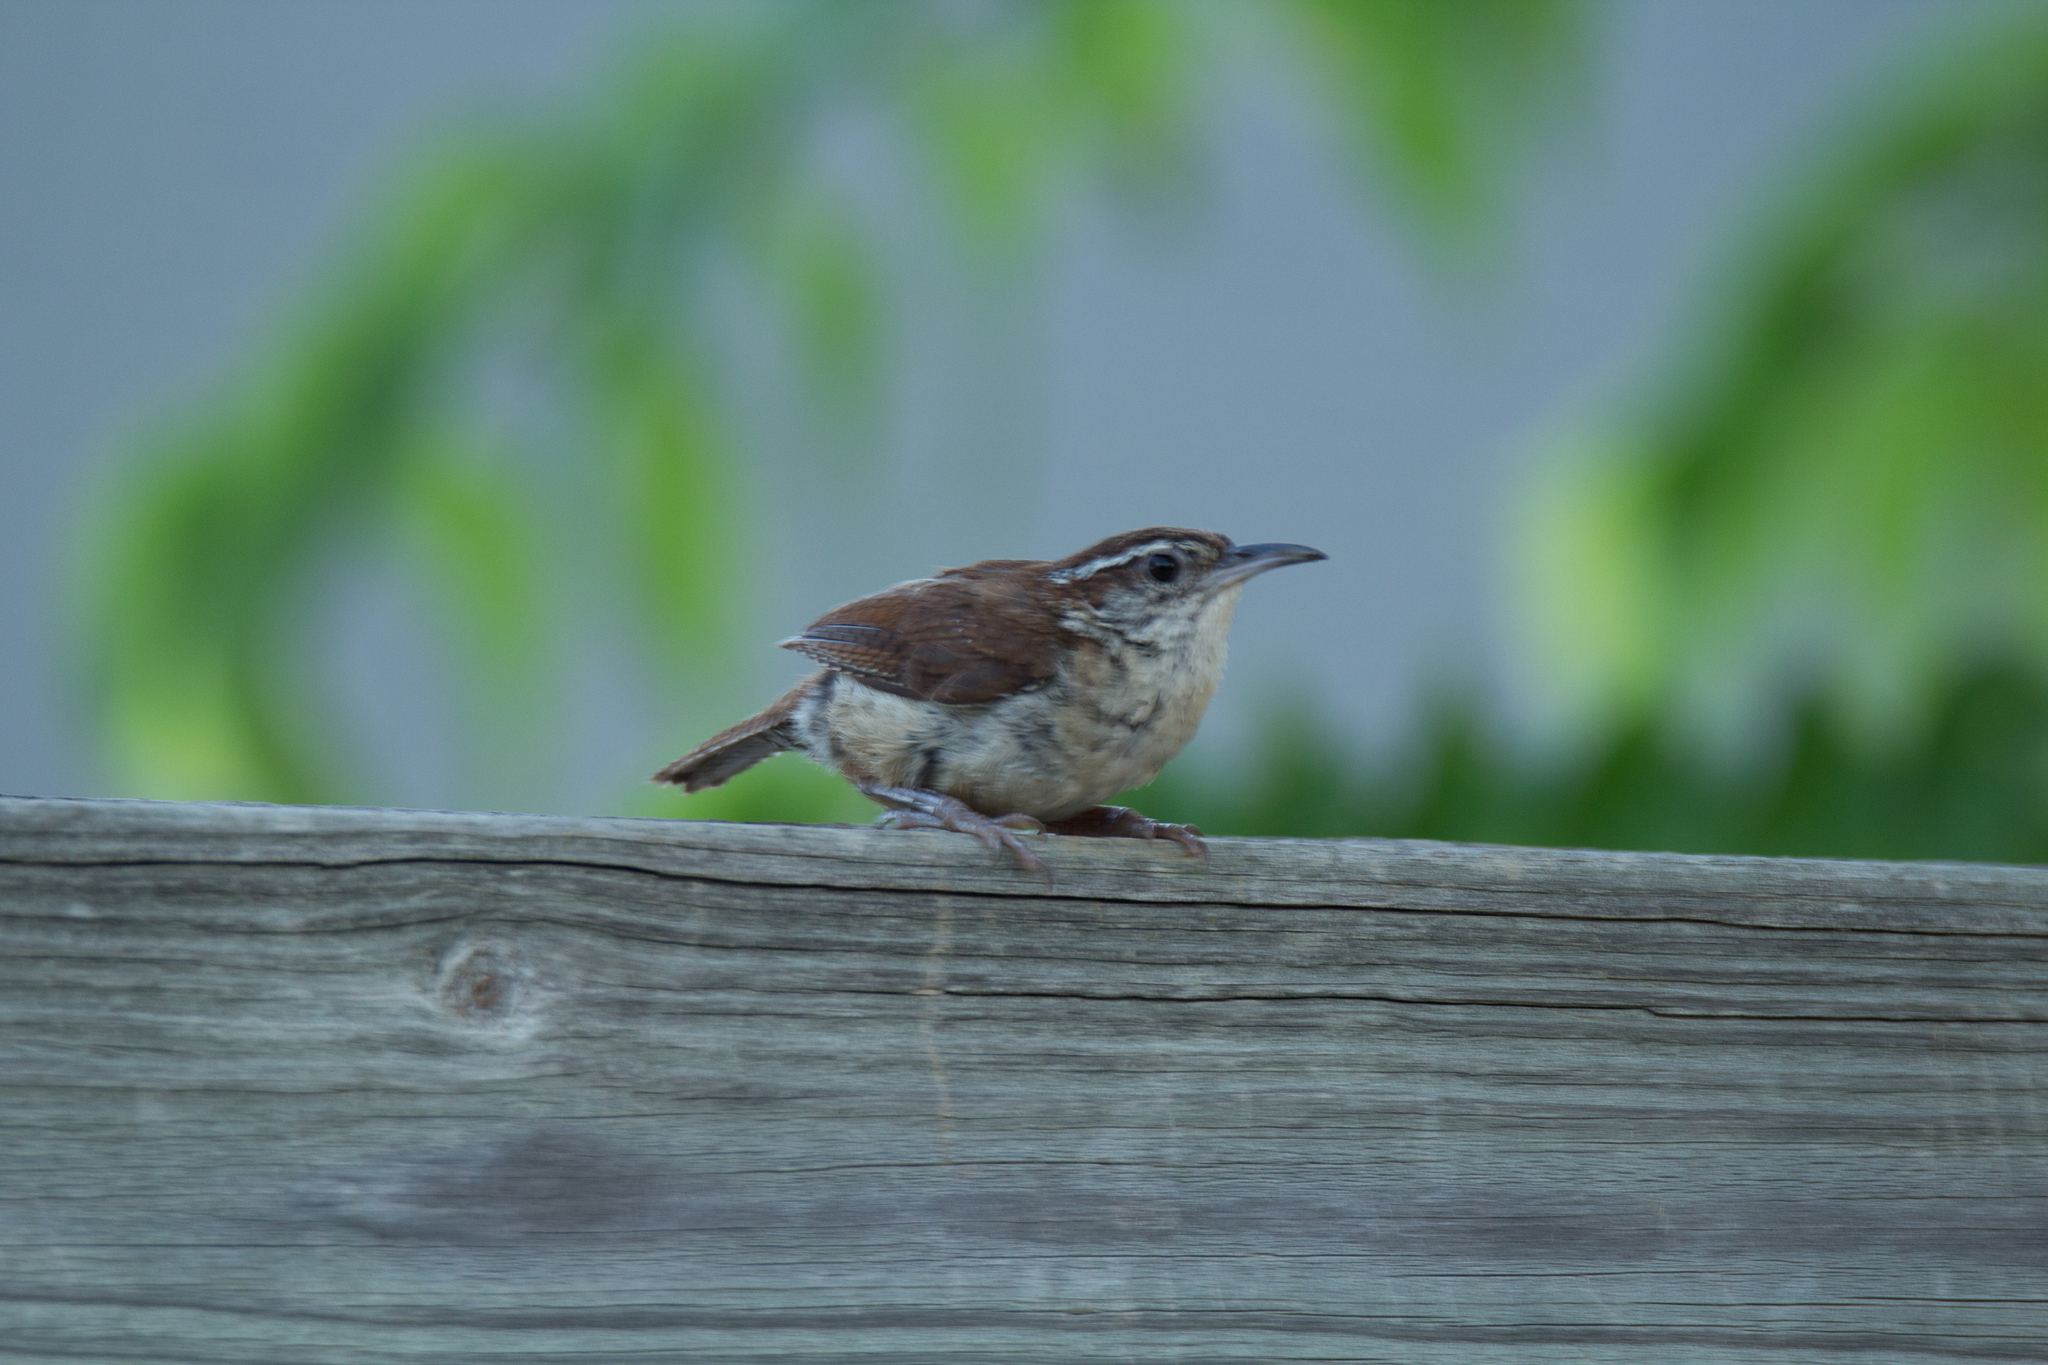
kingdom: Animalia
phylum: Chordata
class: Aves
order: Passeriformes
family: Troglodytidae
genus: Thryothorus
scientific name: Thryothorus ludovicianus
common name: Carolina wren
